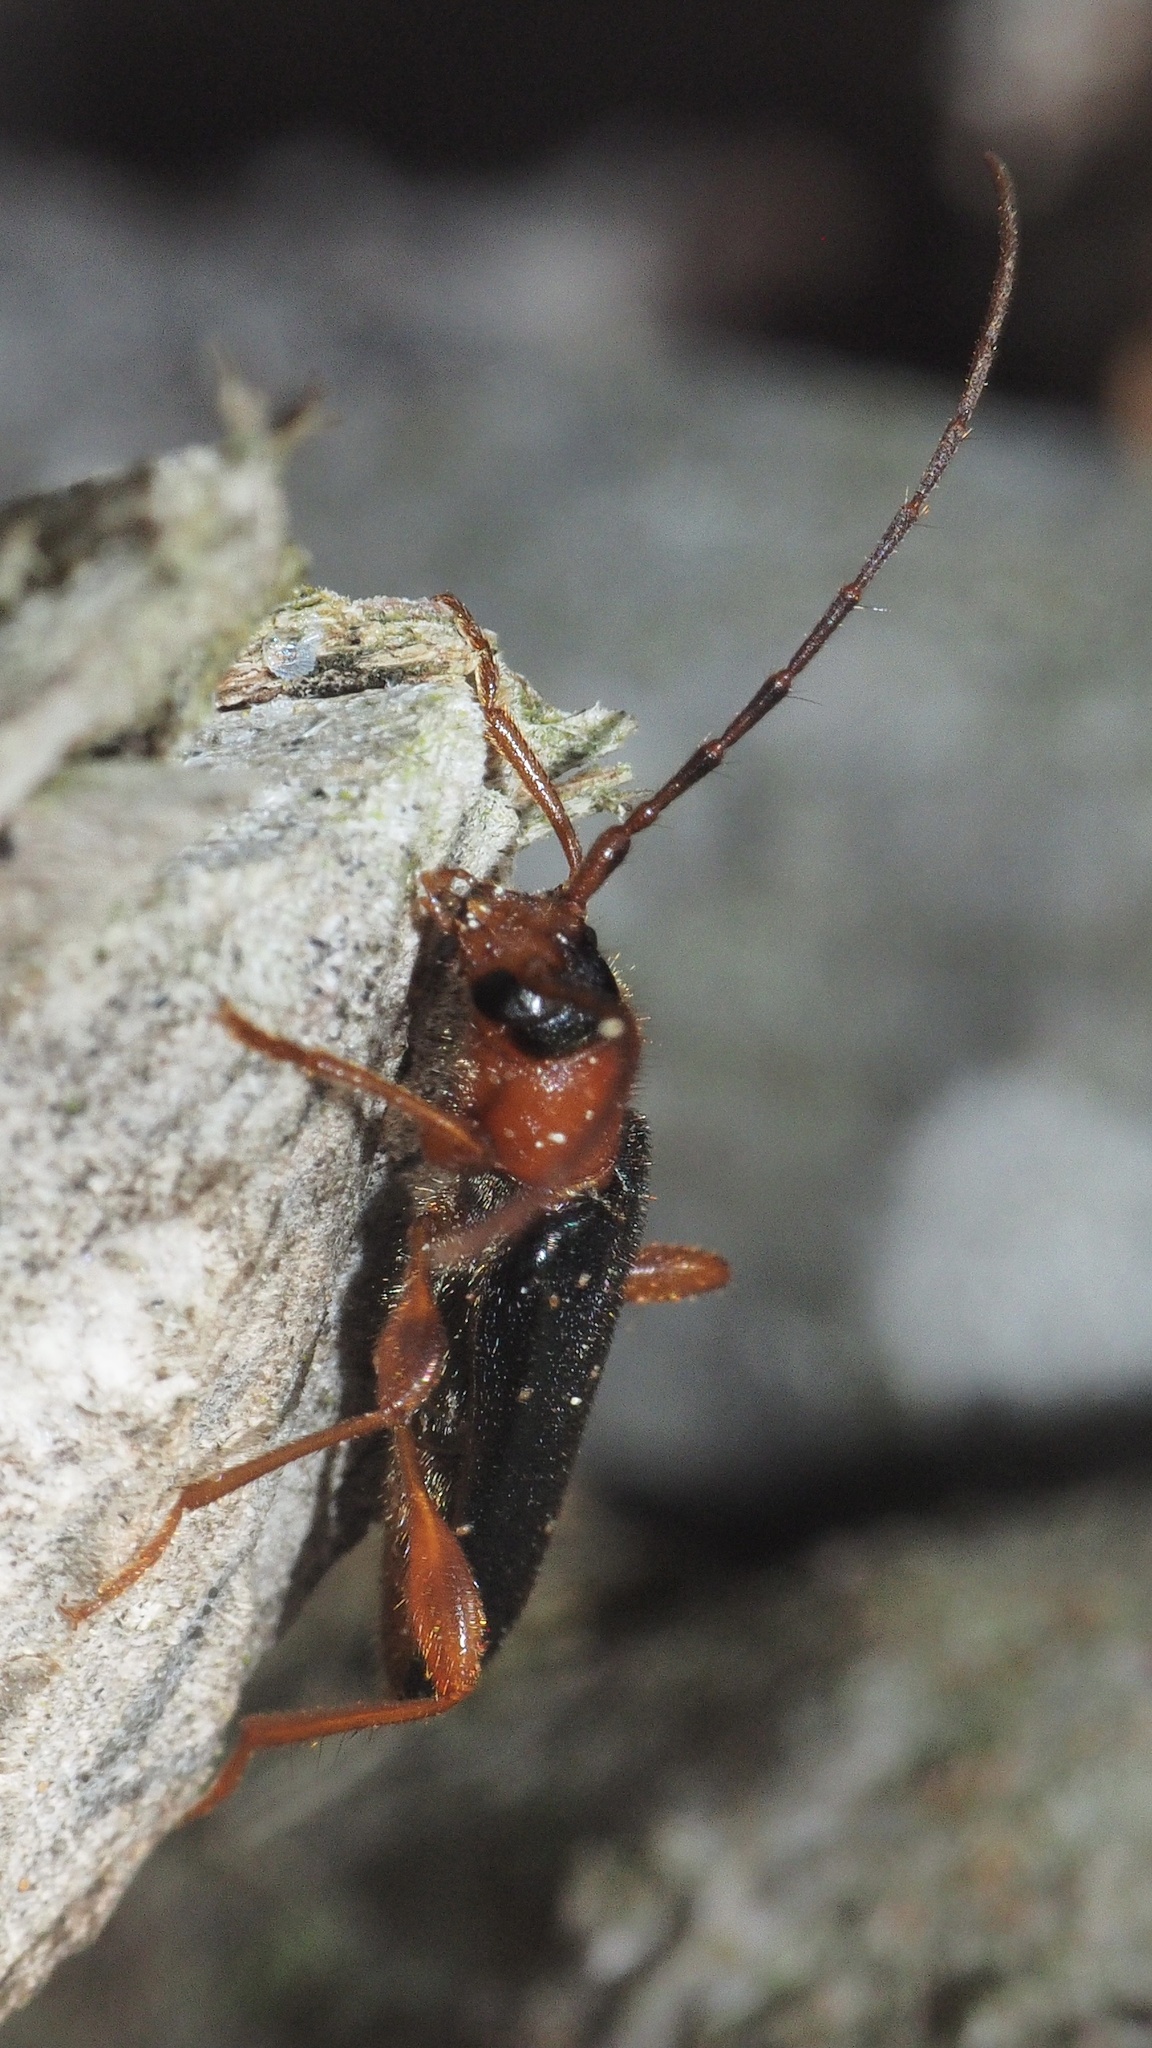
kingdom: Animalia
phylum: Arthropoda
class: Insecta
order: Coleoptera
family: Cerambycidae
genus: Phymatodes
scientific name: Phymatodes testaceus
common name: Long-horned beetle
